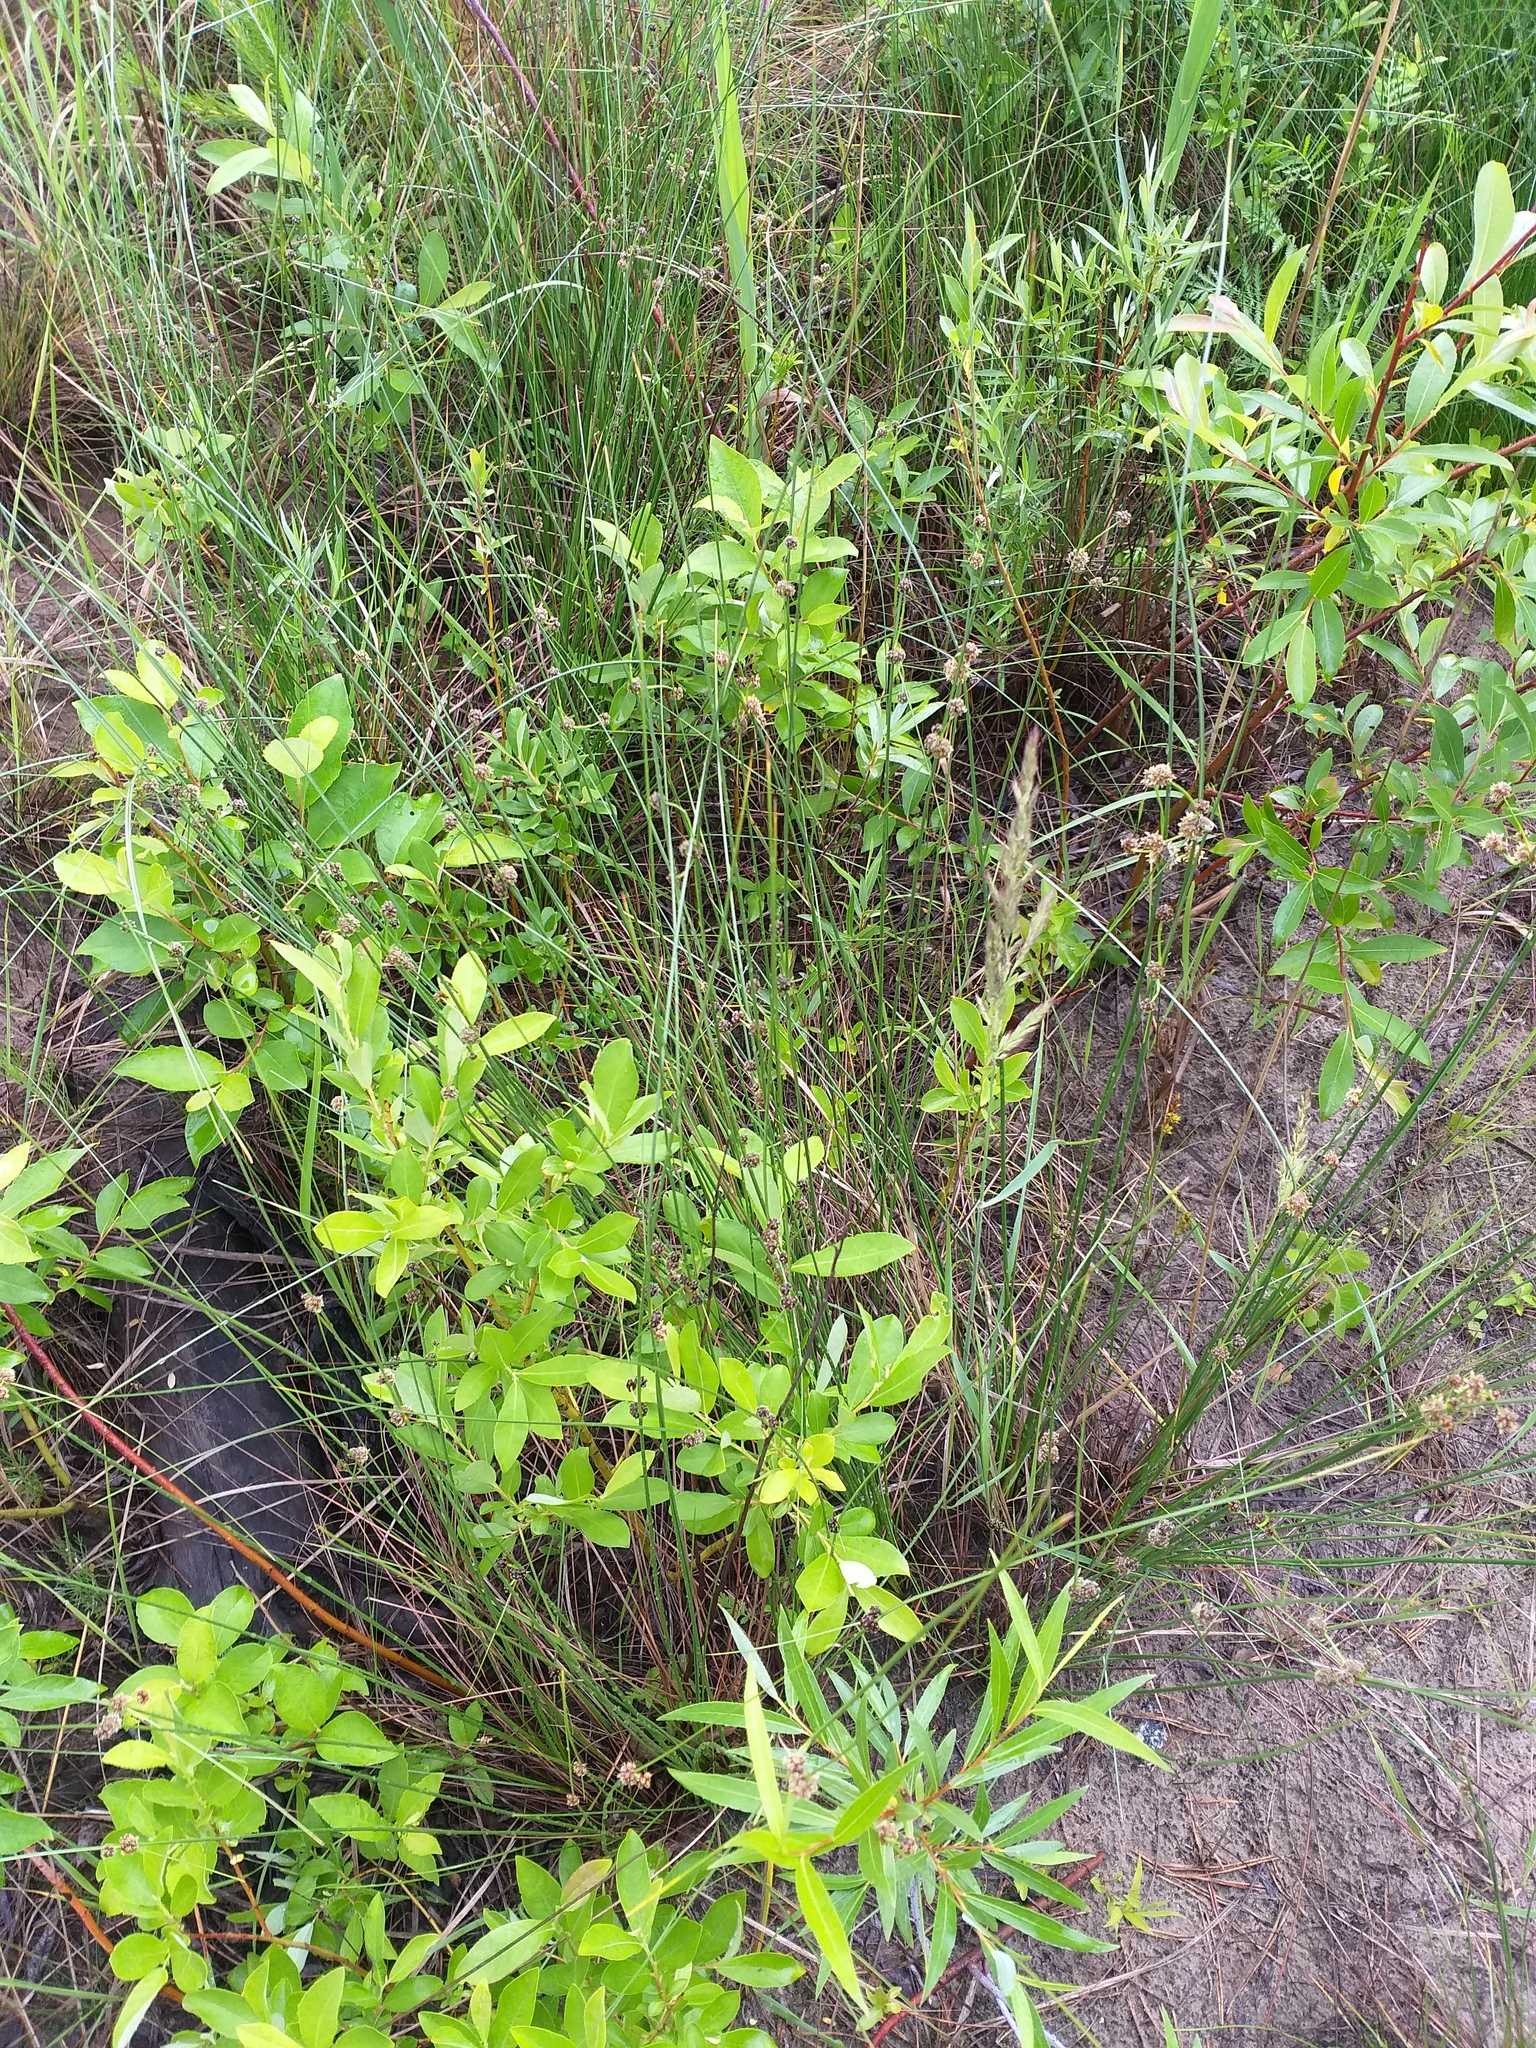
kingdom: Plantae
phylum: Tracheophyta
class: Liliopsida
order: Poales
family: Cyperaceae
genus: Scirpoides
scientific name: Scirpoides holoschoenus
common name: Round-headed club-rush
